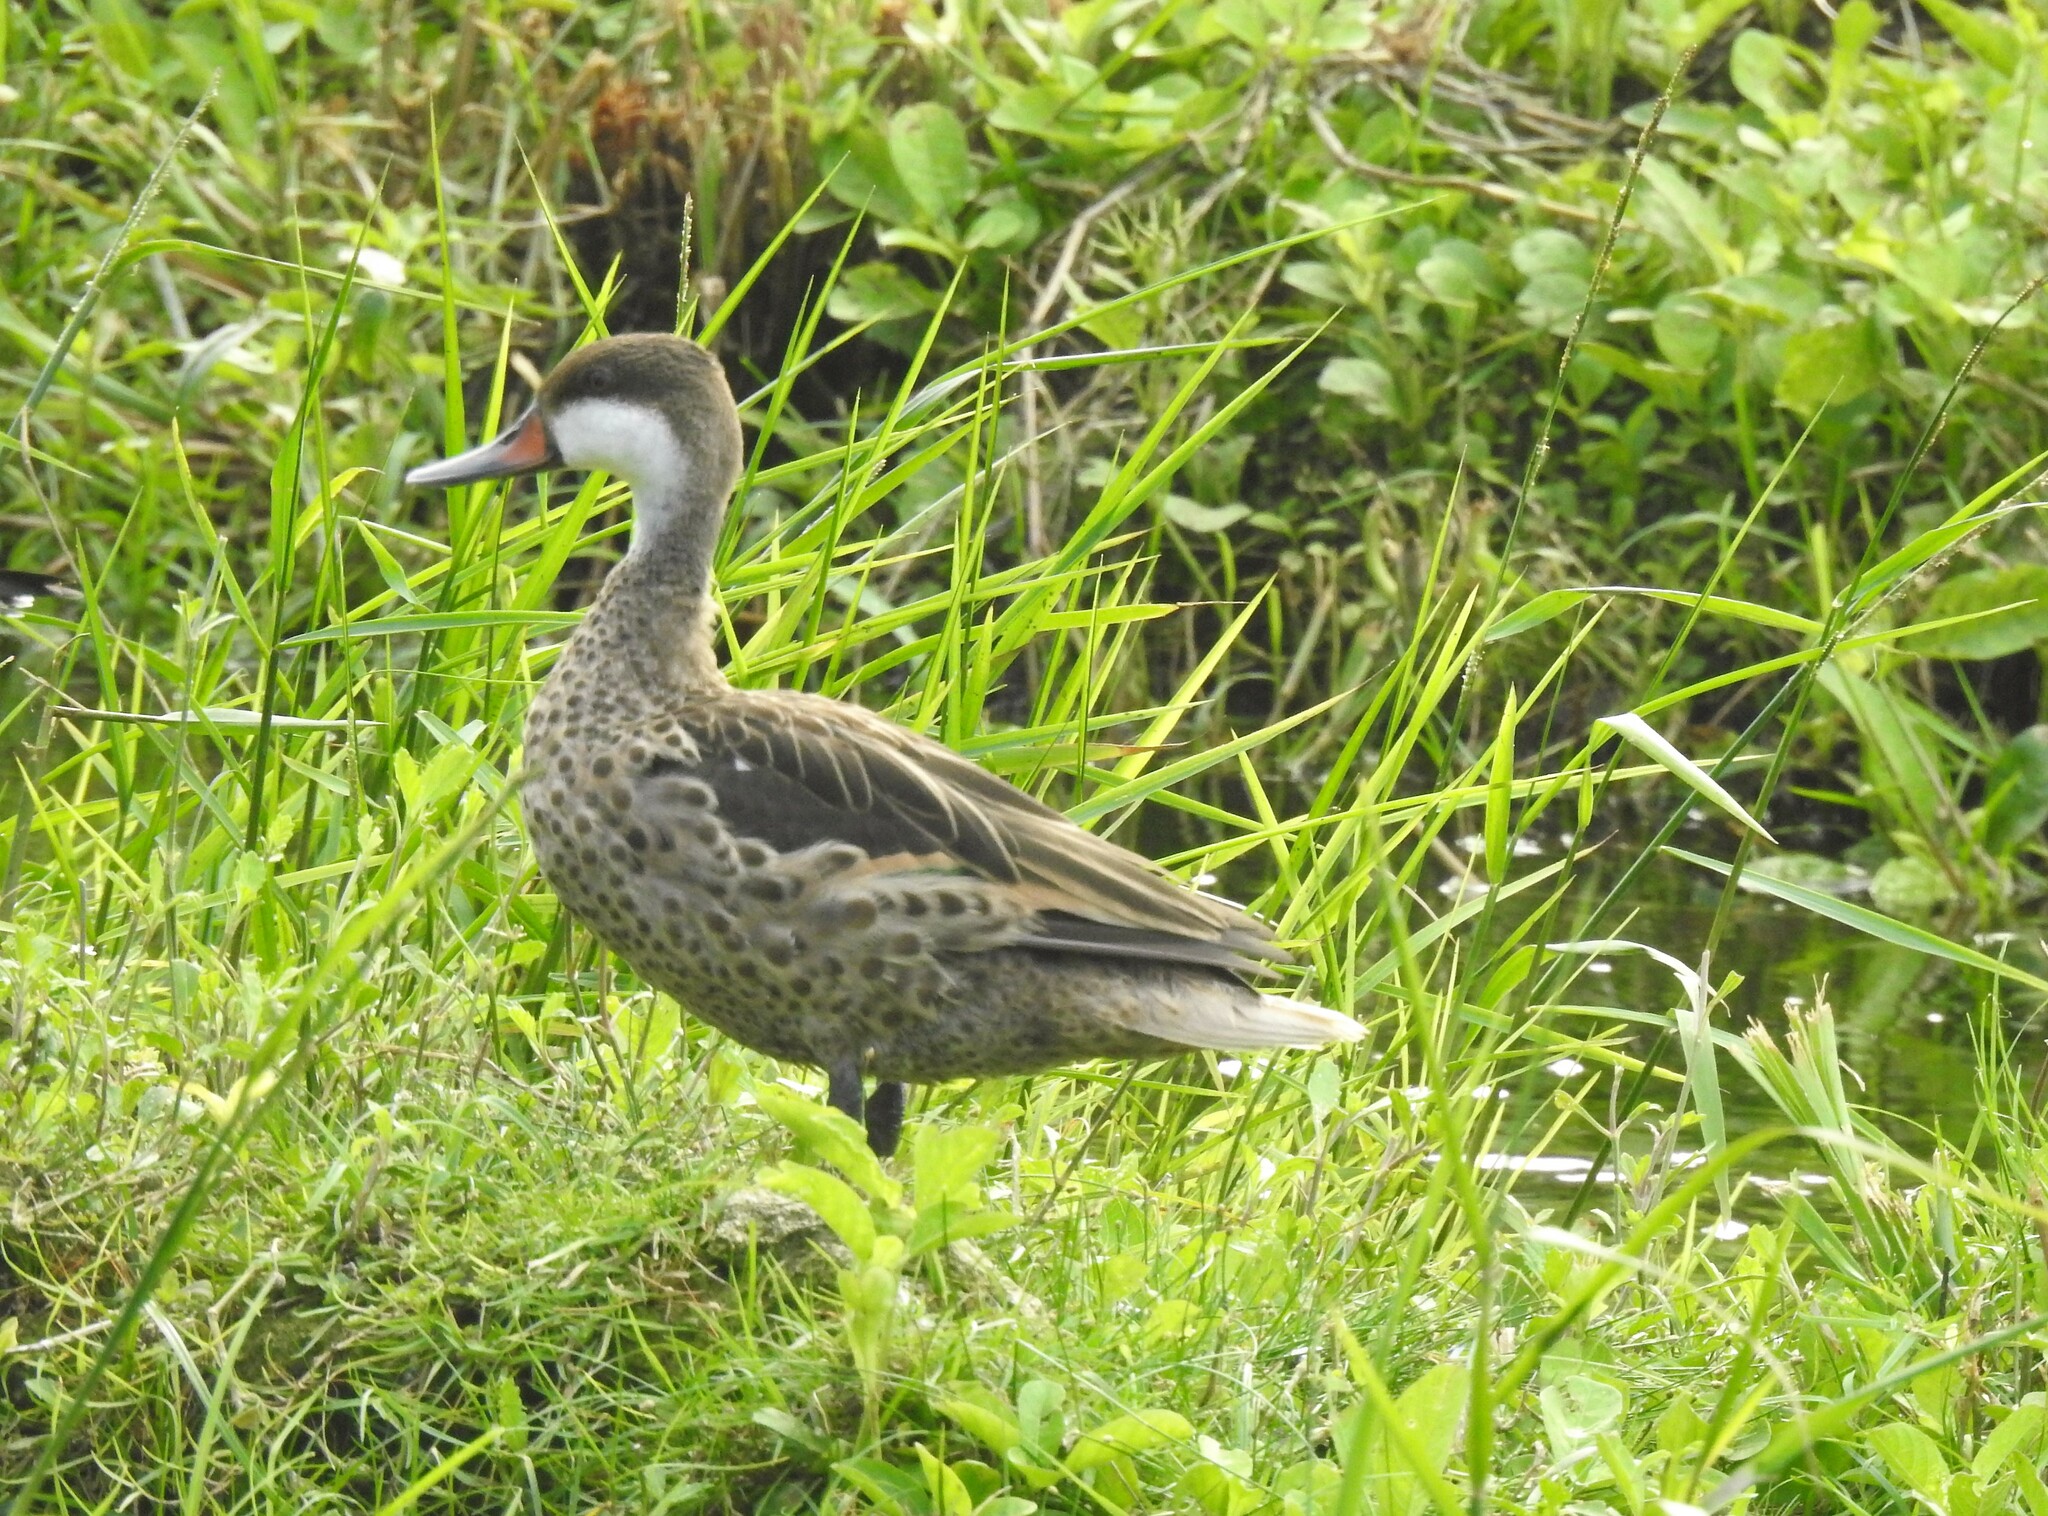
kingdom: Animalia
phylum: Chordata
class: Aves
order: Anseriformes
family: Anatidae
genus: Anas
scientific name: Anas bahamensis
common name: White-cheeked pintail
